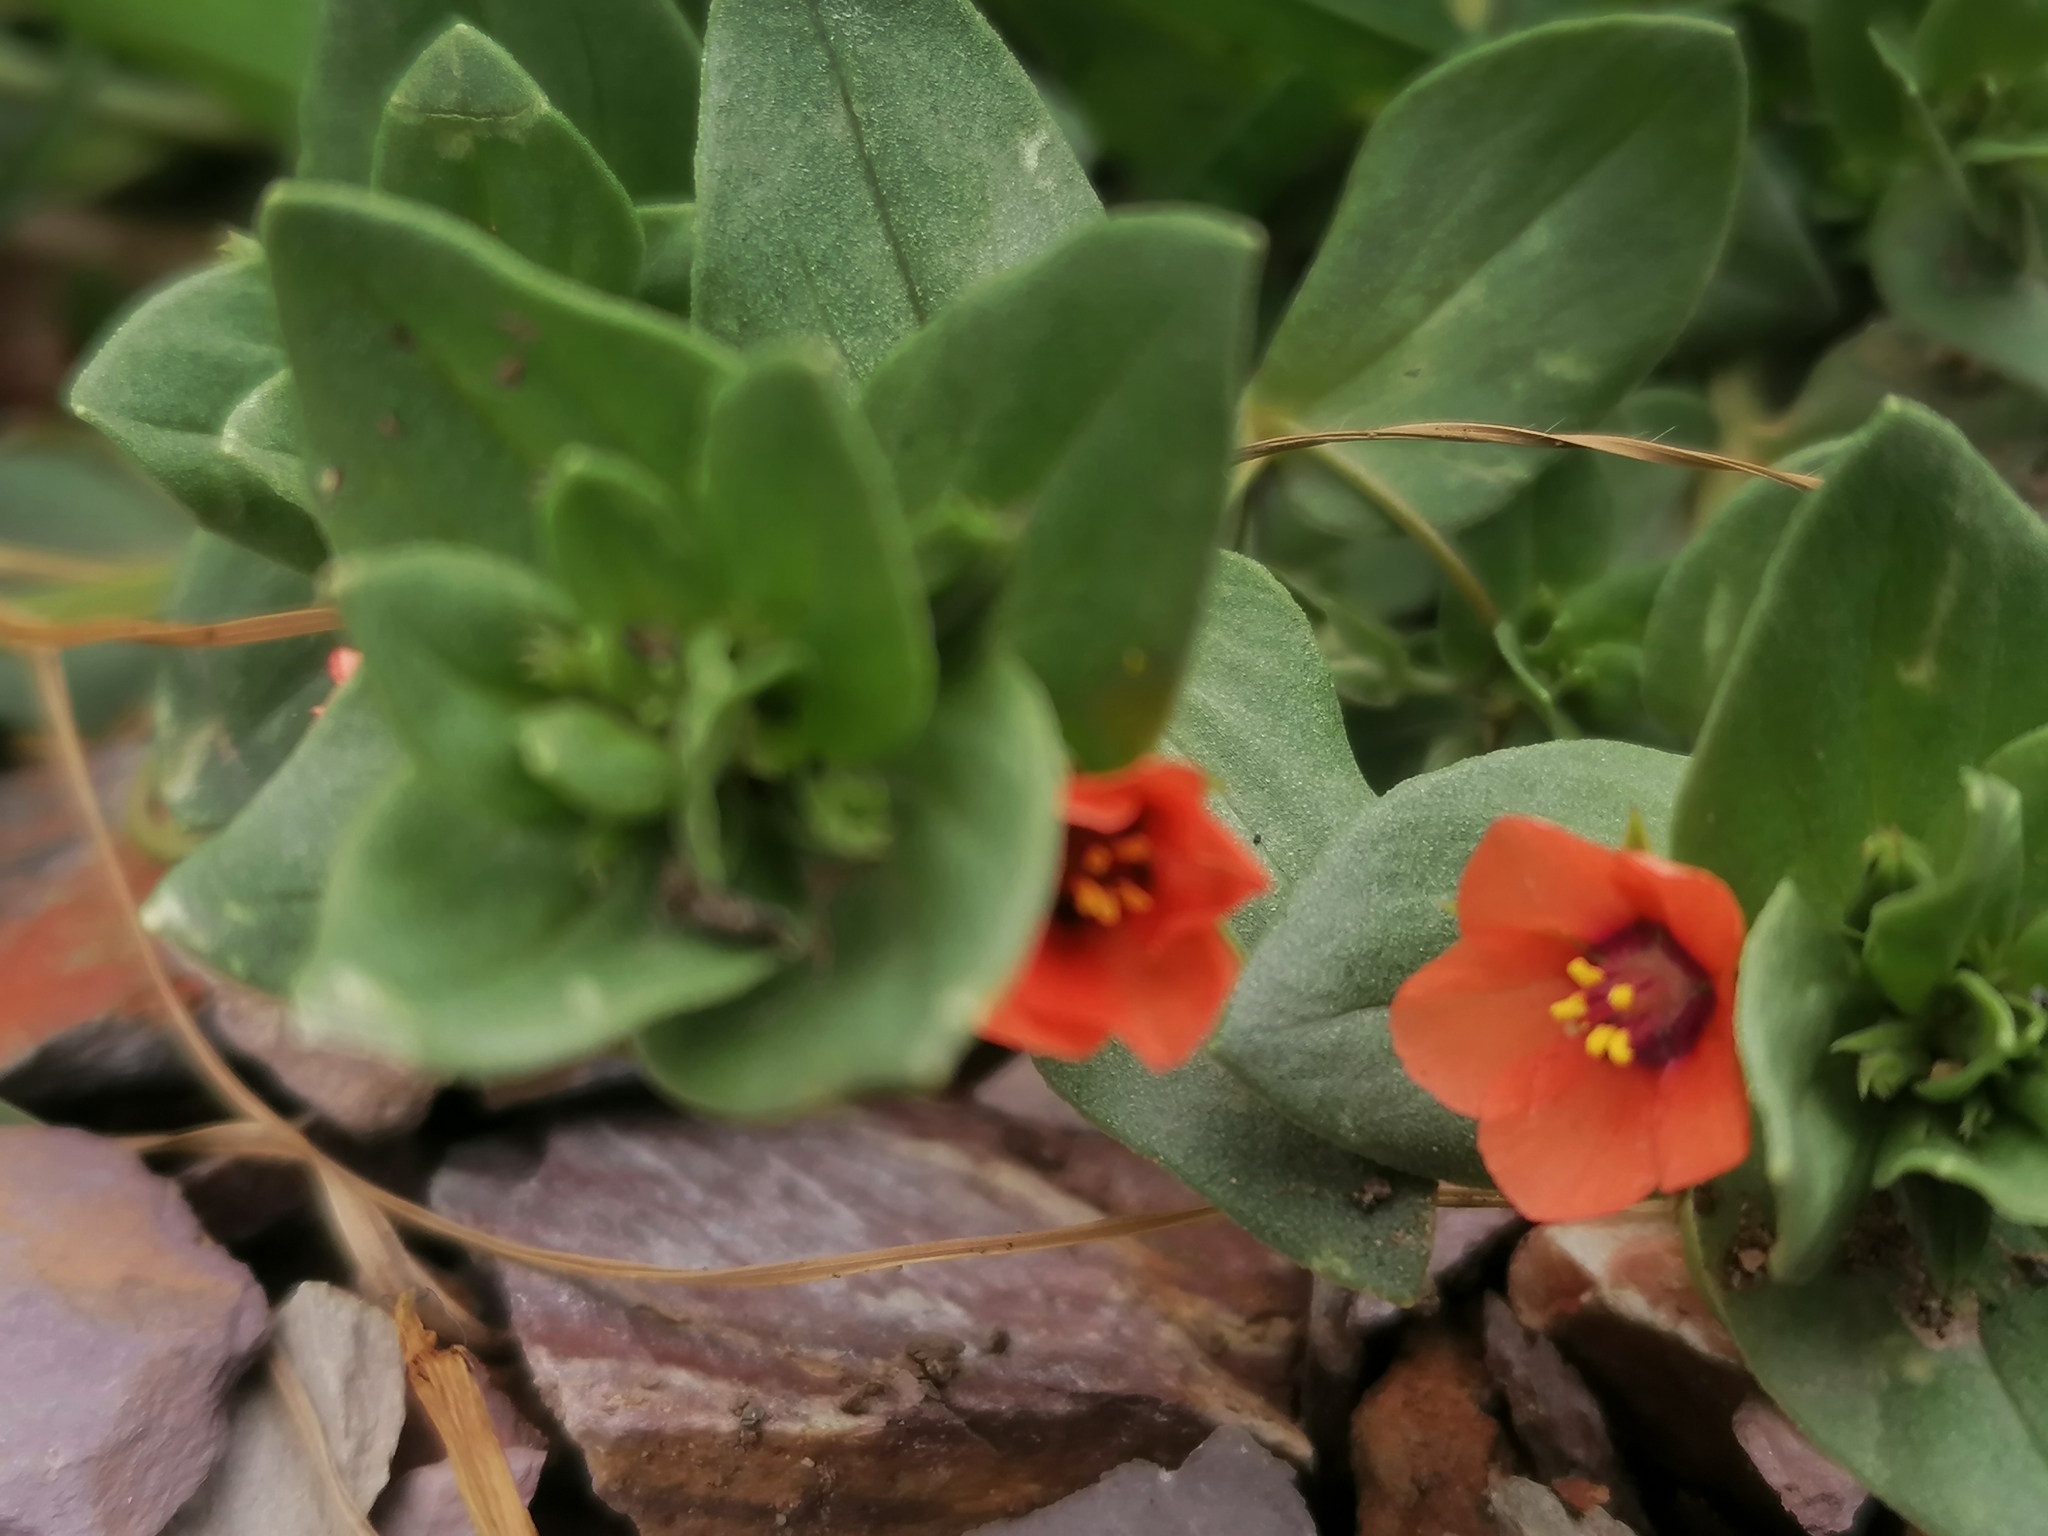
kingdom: Plantae
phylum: Tracheophyta
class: Magnoliopsida
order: Ericales
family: Primulaceae
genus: Lysimachia
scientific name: Lysimachia arvensis
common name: Scarlet pimpernel
